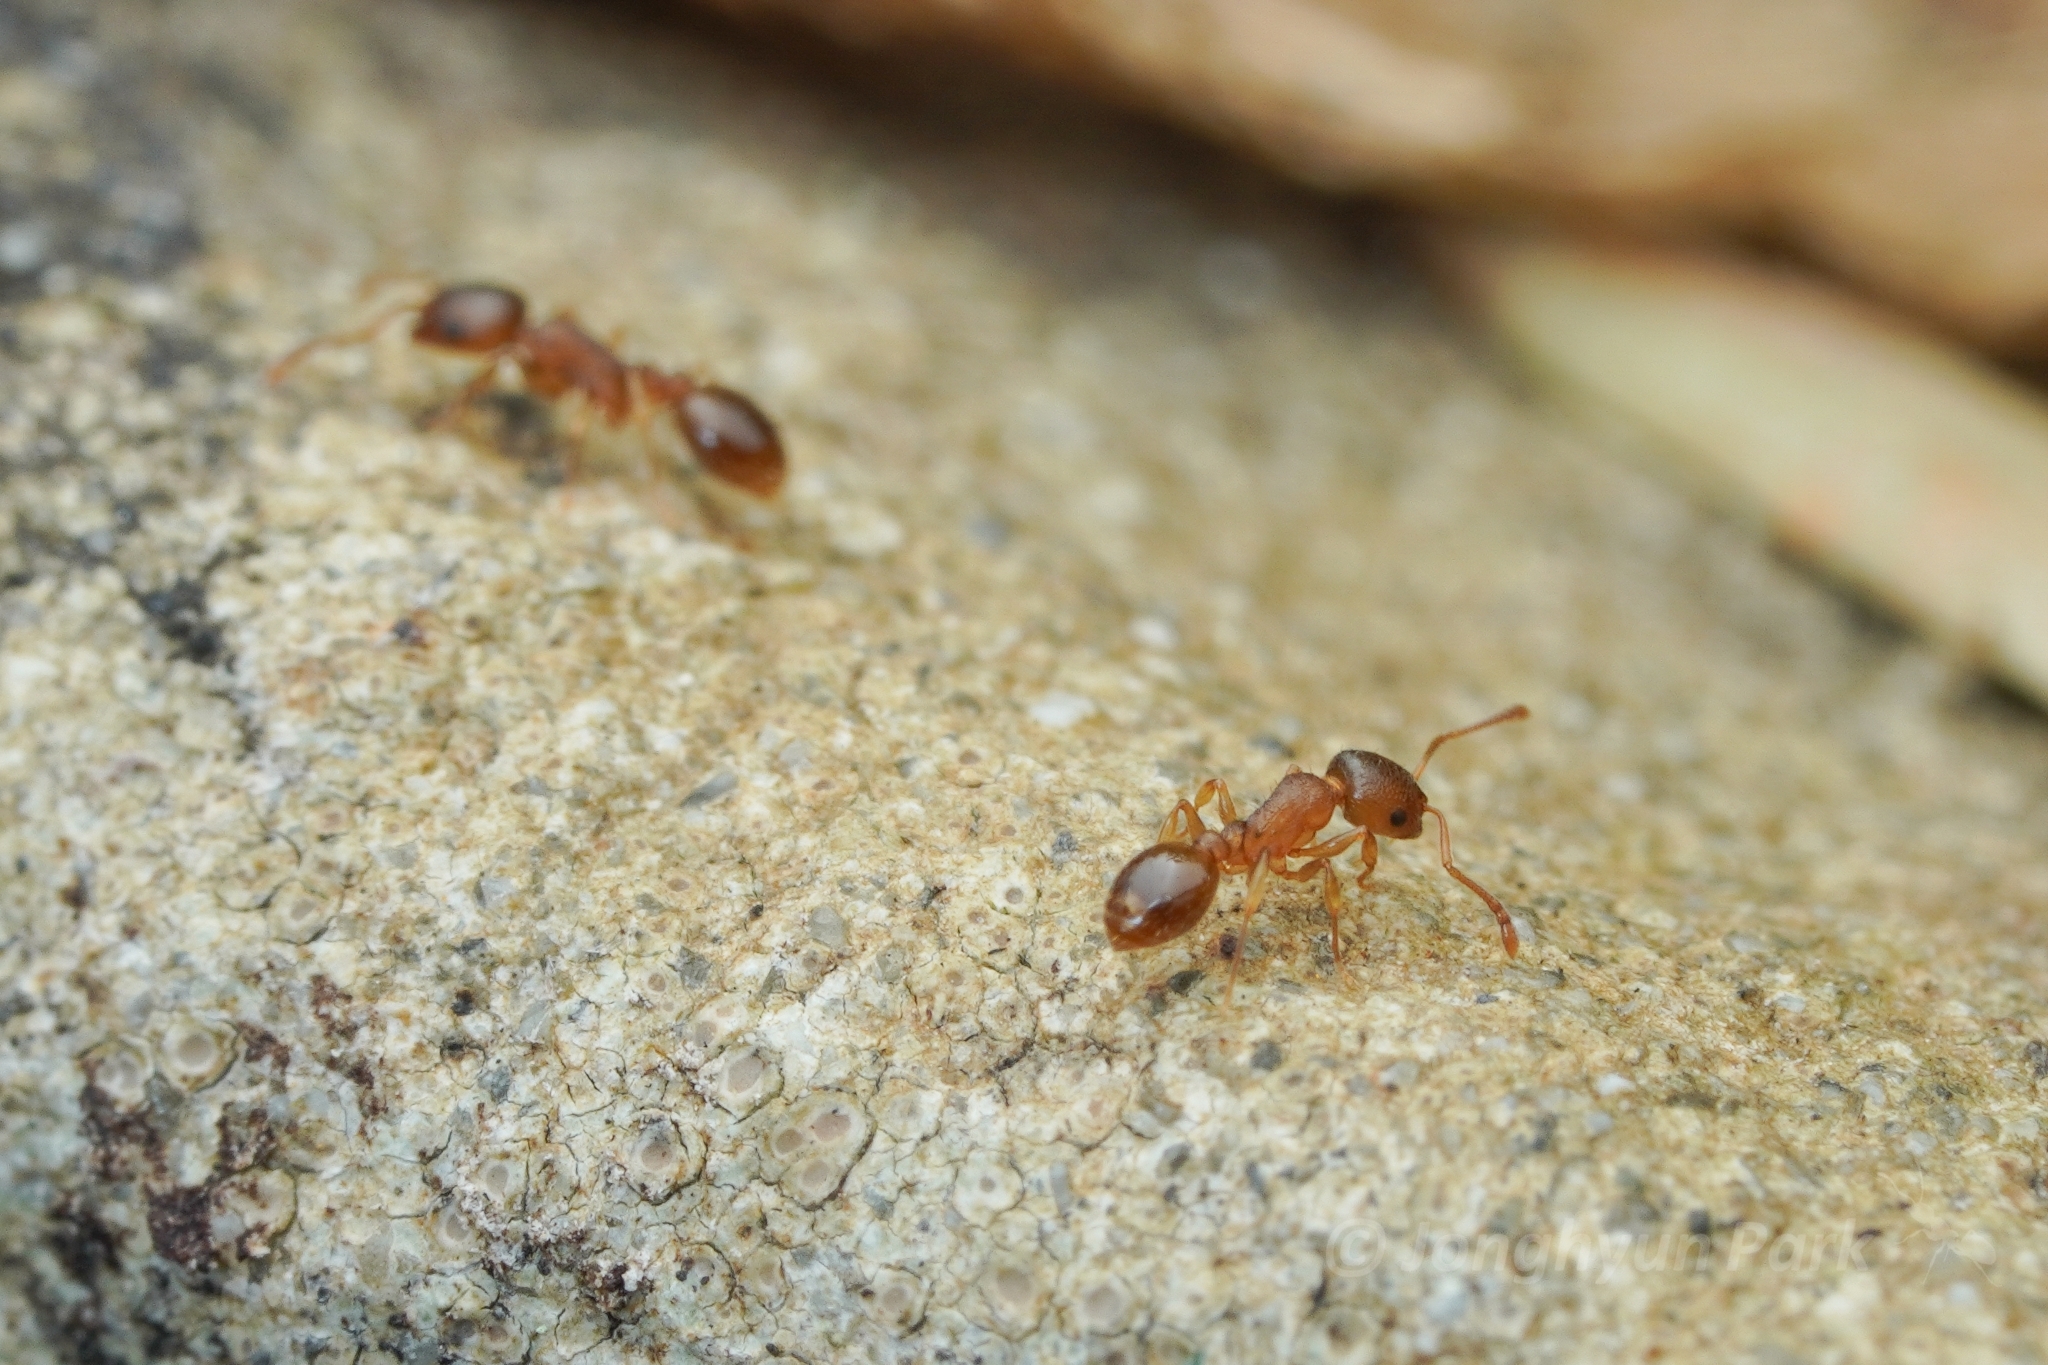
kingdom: Animalia
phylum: Arthropoda
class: Insecta
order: Hymenoptera
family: Formicidae
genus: Temnothorax
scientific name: Temnothorax chandleri
